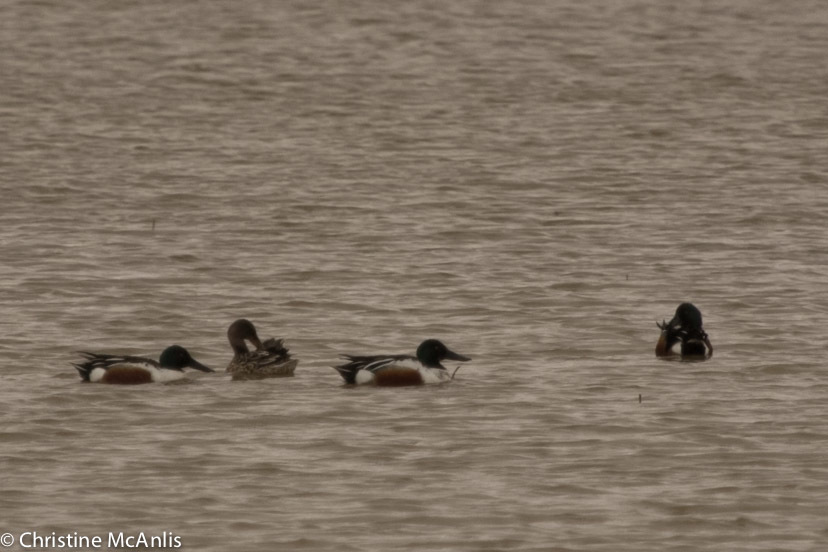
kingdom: Animalia
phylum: Chordata
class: Aves
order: Anseriformes
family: Anatidae
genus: Spatula
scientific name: Spatula clypeata
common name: Northern shoveler
